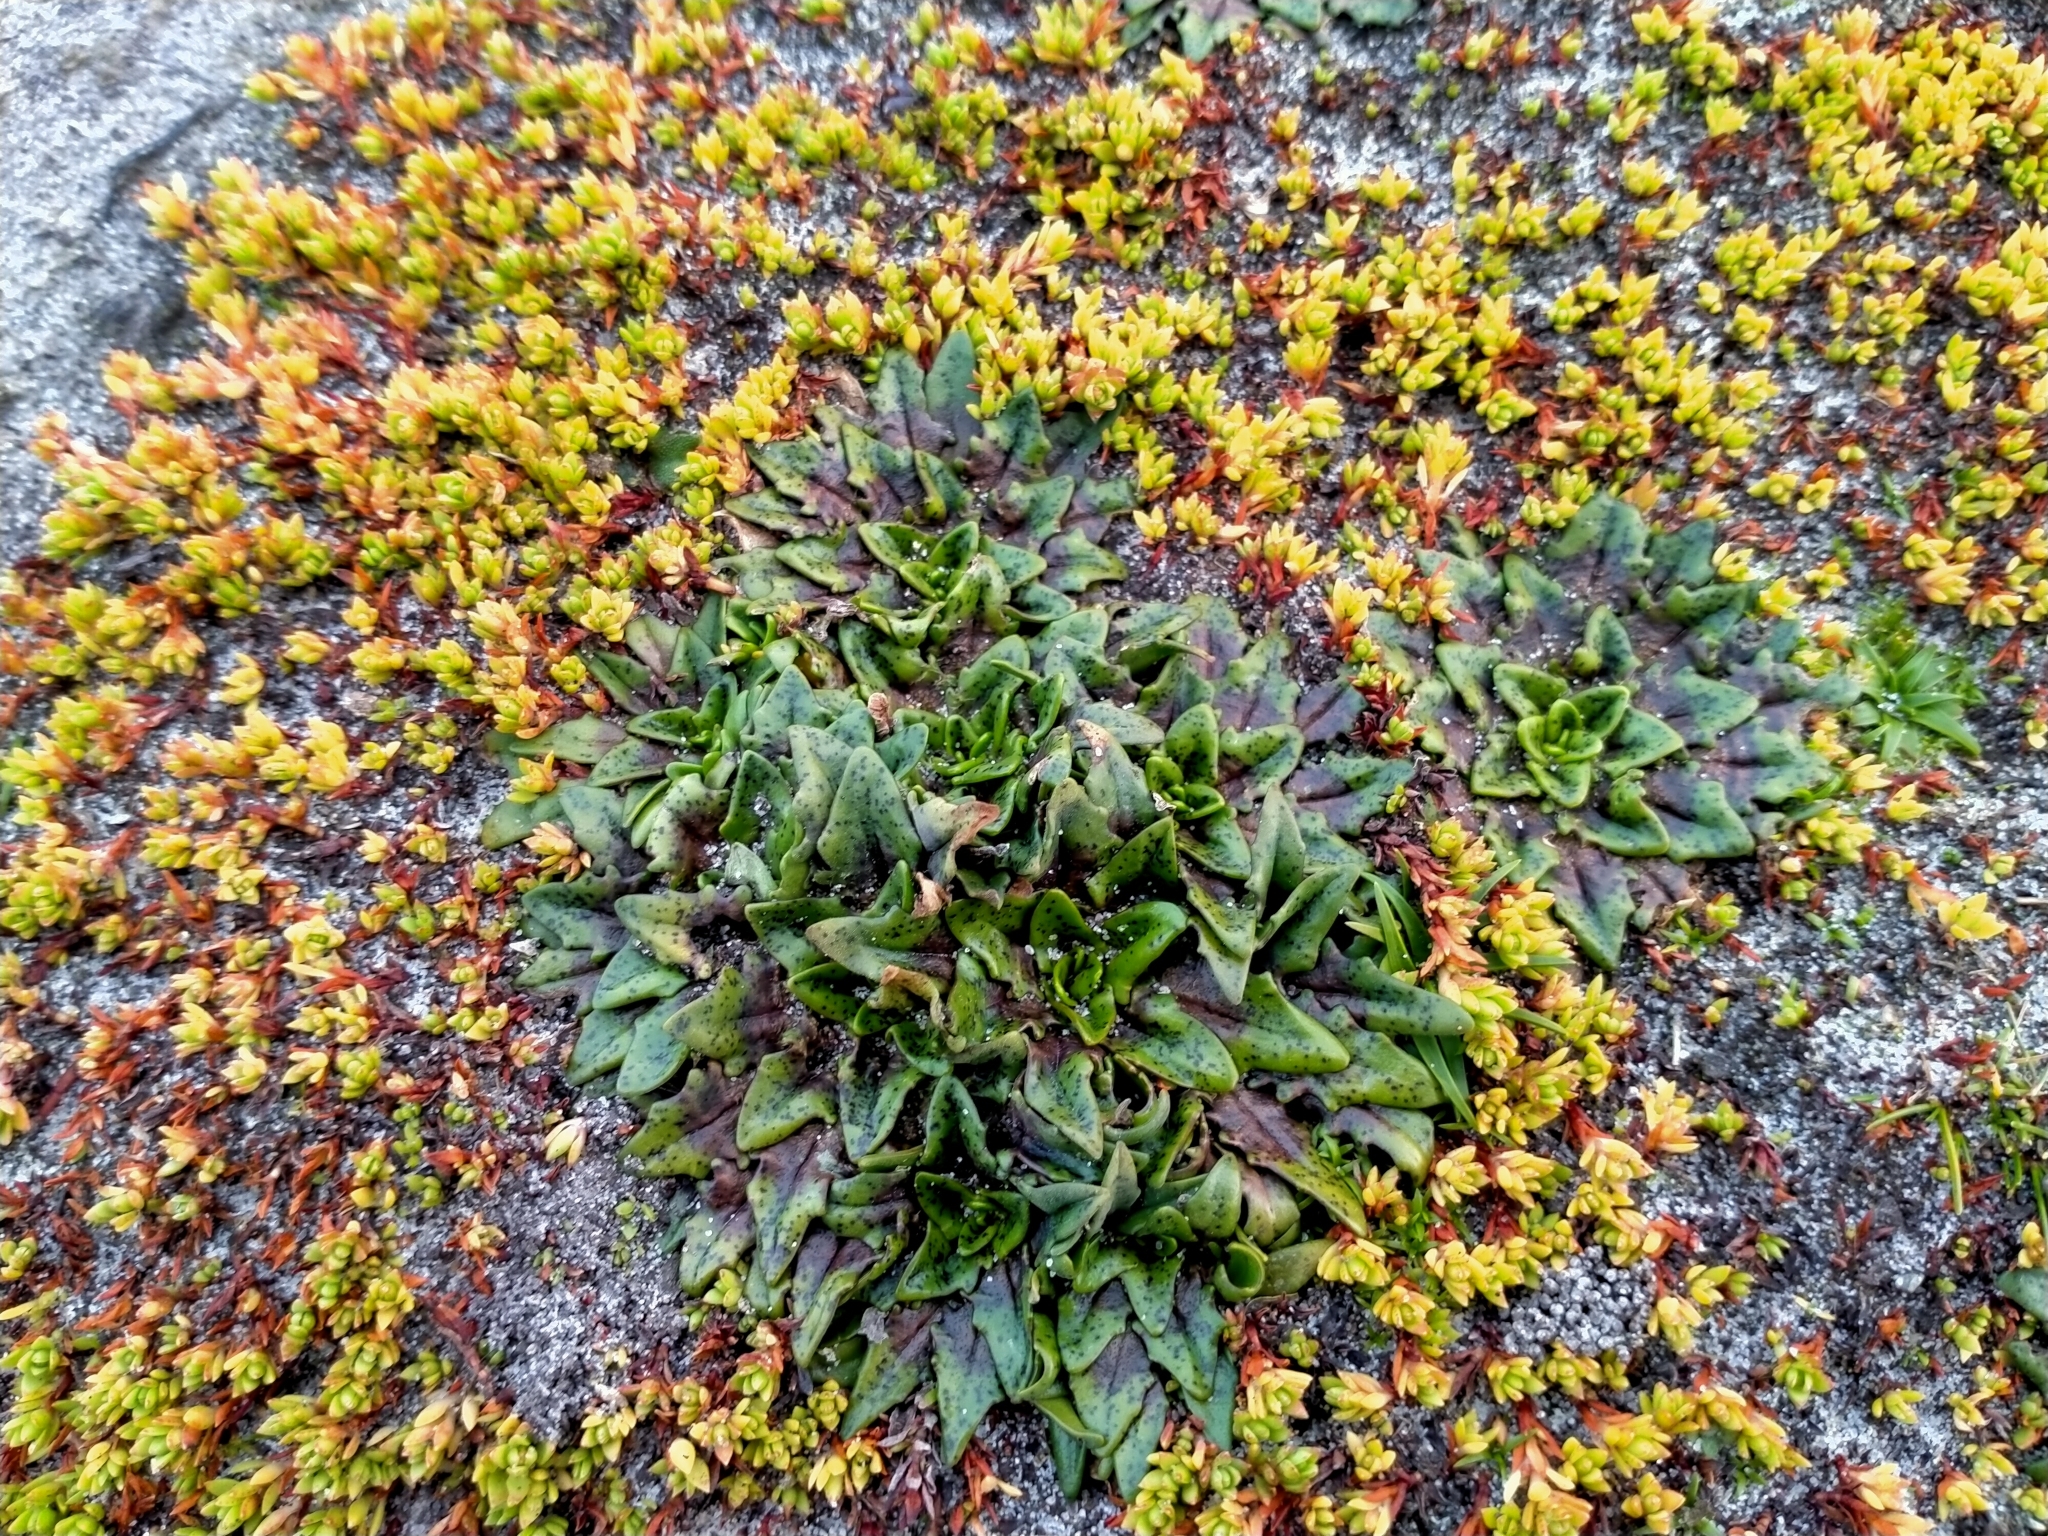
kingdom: Plantae
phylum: Tracheophyta
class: Magnoliopsida
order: Lamiales
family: Plantaginaceae
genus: Plantago
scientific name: Plantago triandra
